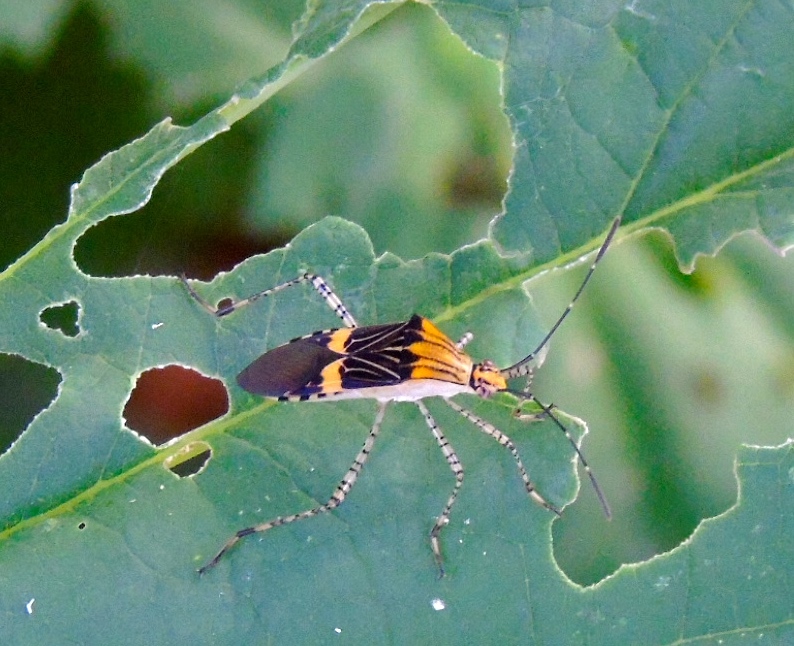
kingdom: Animalia
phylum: Arthropoda
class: Insecta
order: Hemiptera
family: Coreidae
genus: Hypselonotus
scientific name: Hypselonotus lineatus
